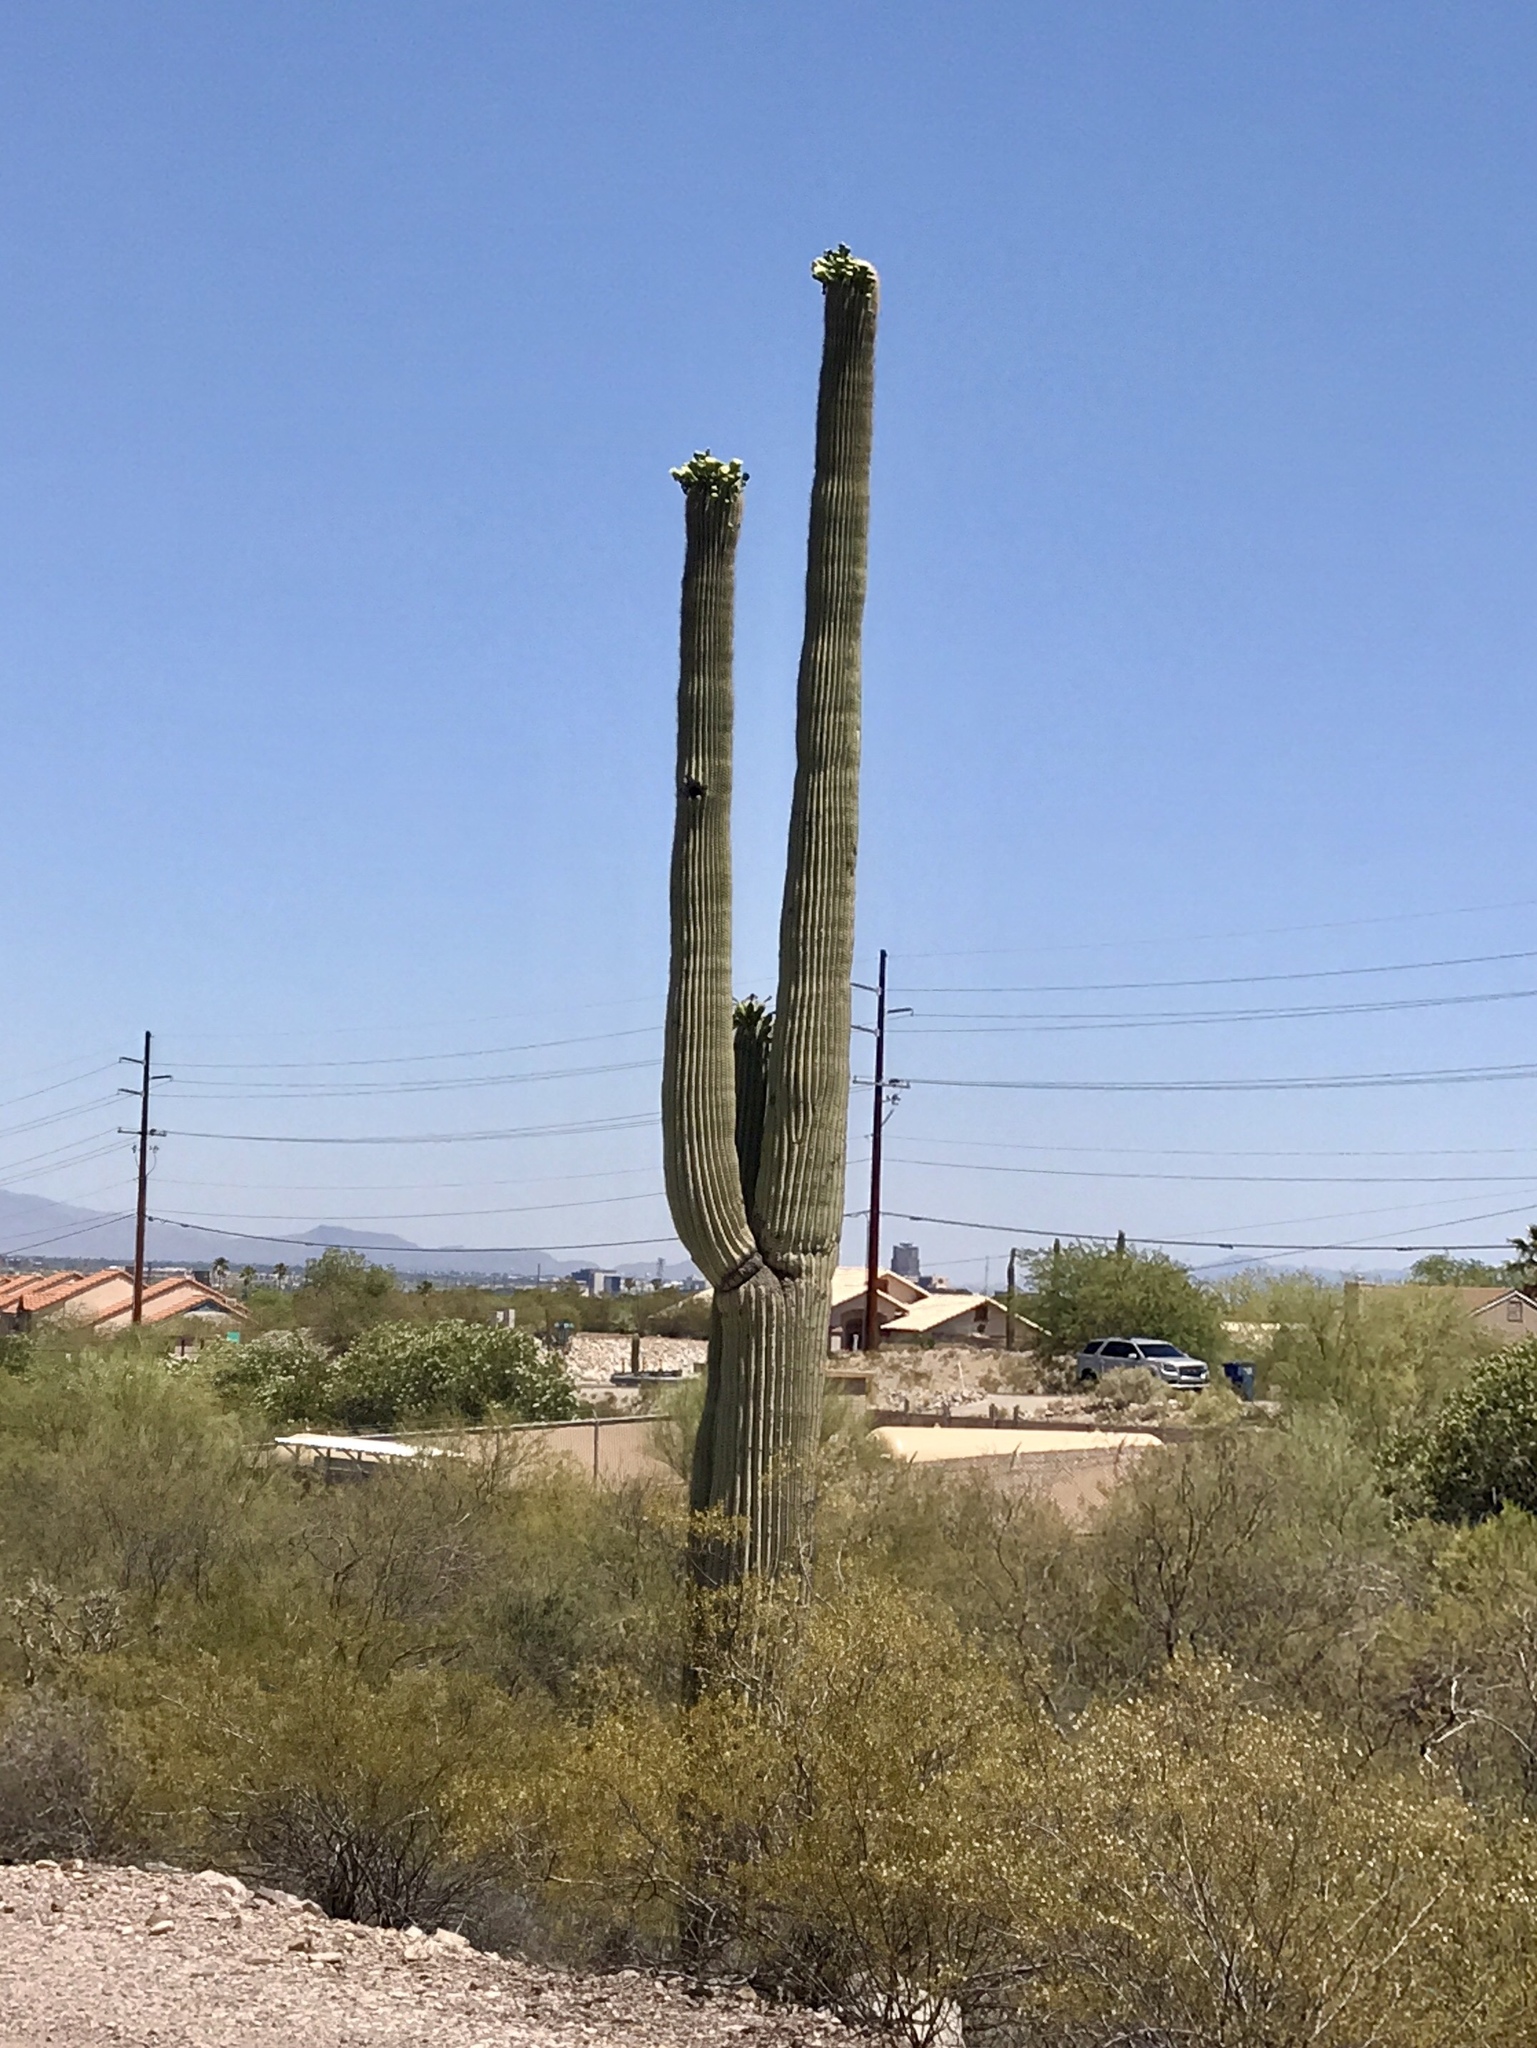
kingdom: Plantae
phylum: Tracheophyta
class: Magnoliopsida
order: Caryophyllales
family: Cactaceae
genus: Carnegiea
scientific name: Carnegiea gigantea
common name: Saguaro
